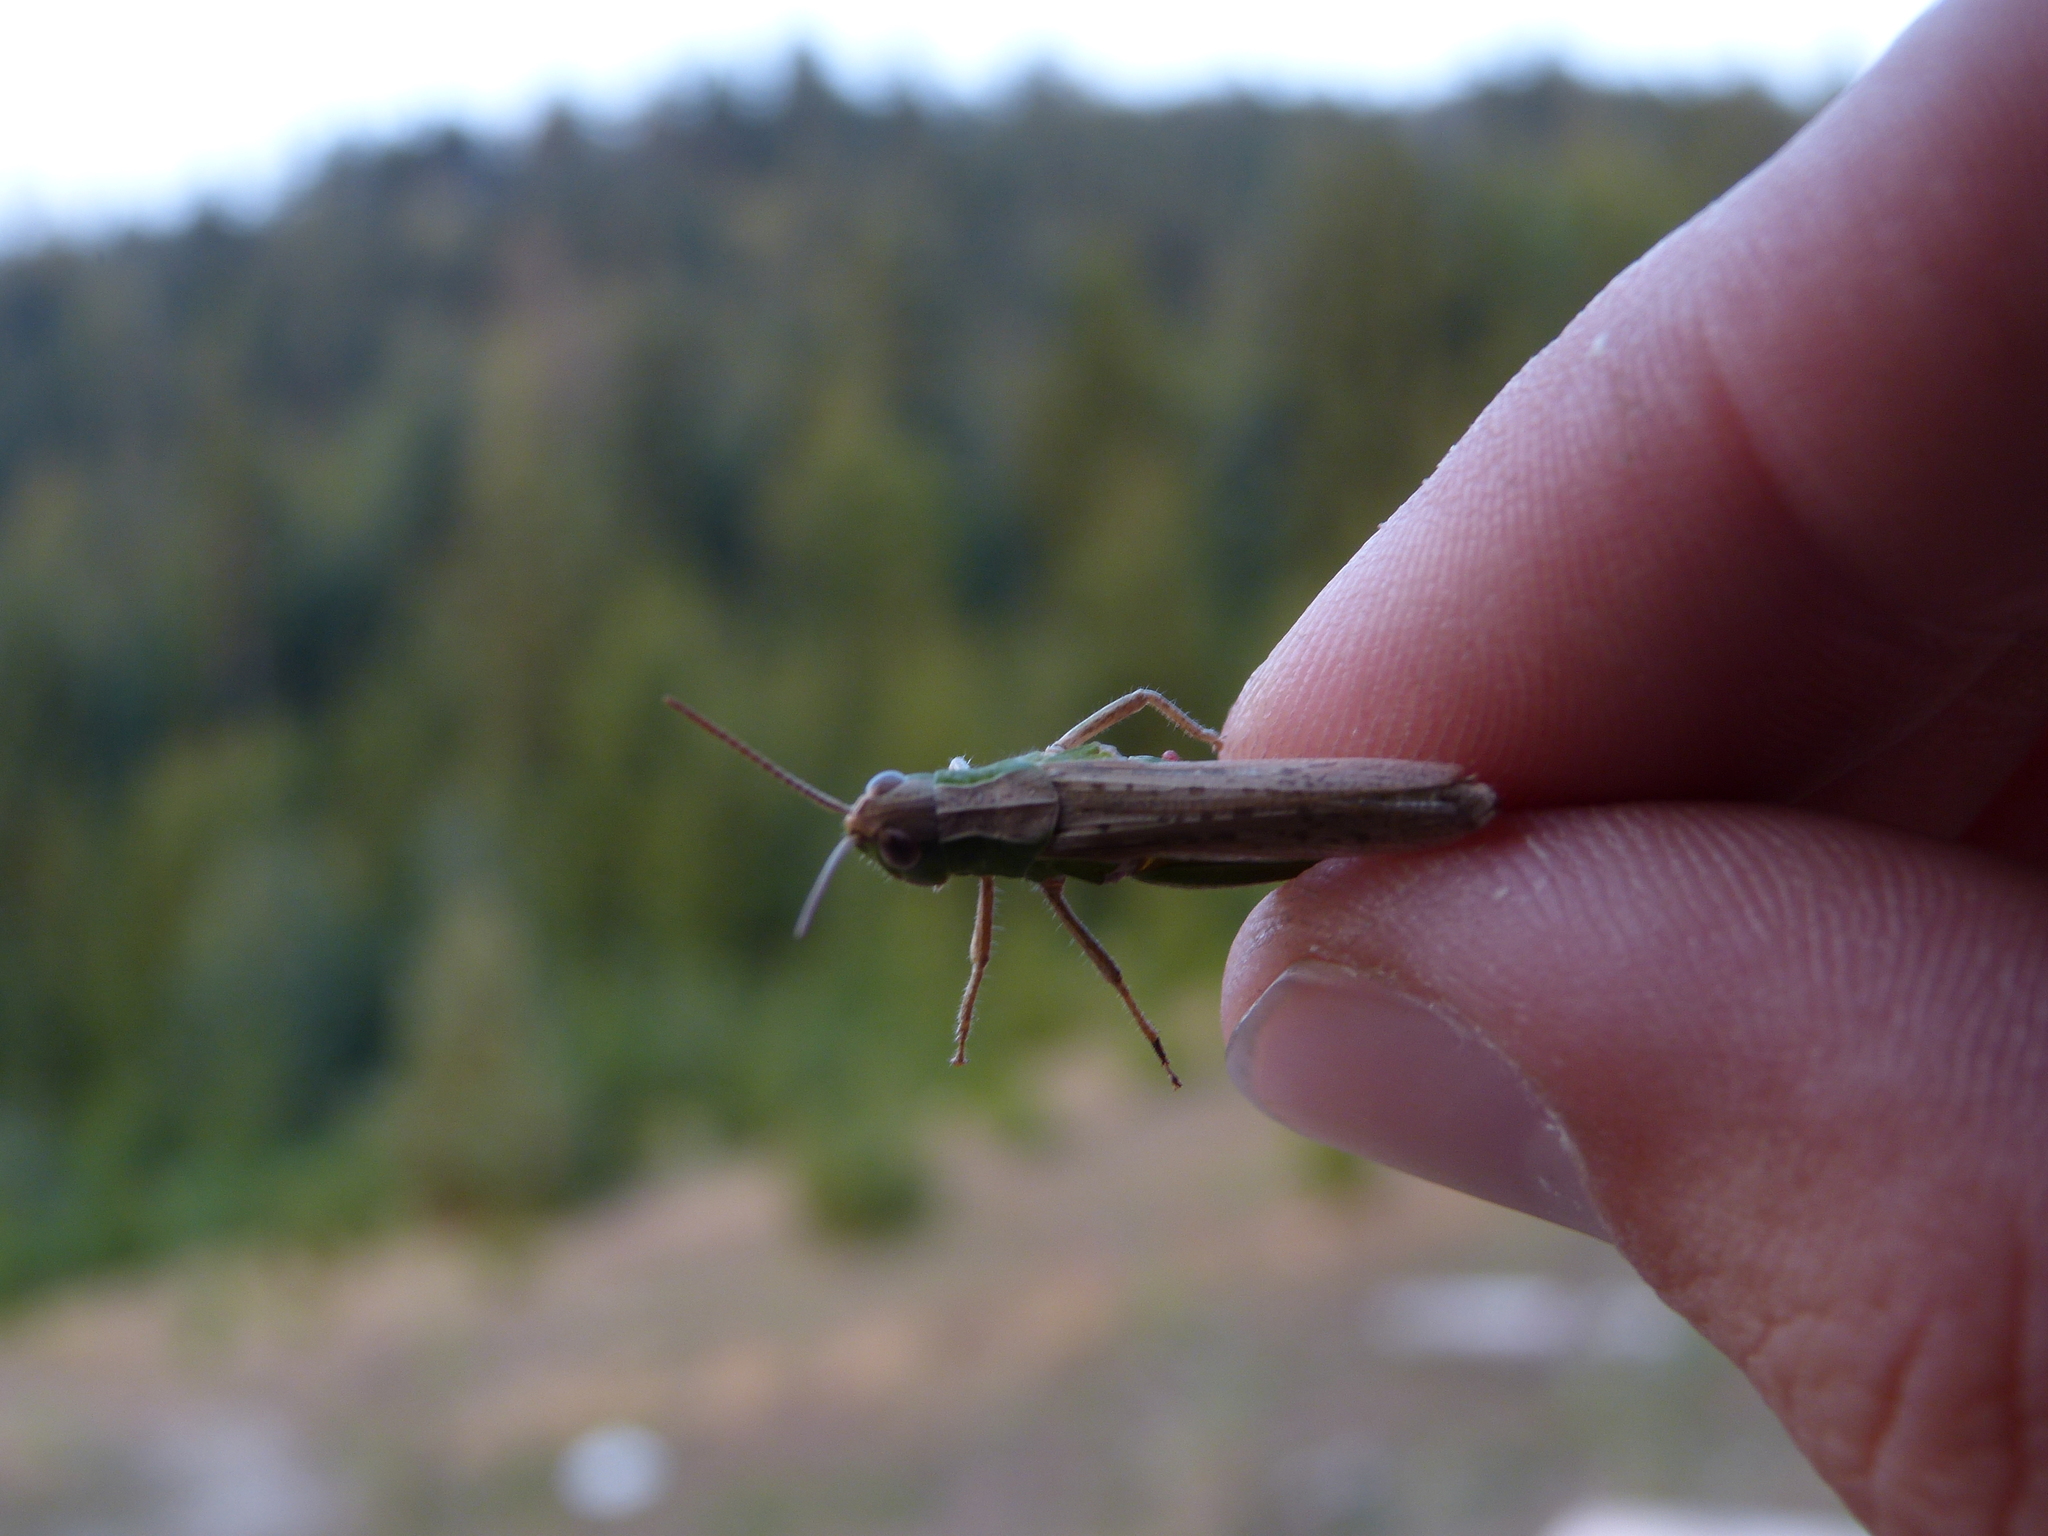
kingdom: Animalia
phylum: Arthropoda
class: Insecta
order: Orthoptera
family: Acrididae
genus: Chorthippus
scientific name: Chorthippus dorsatus
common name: Steppe grasshopper
